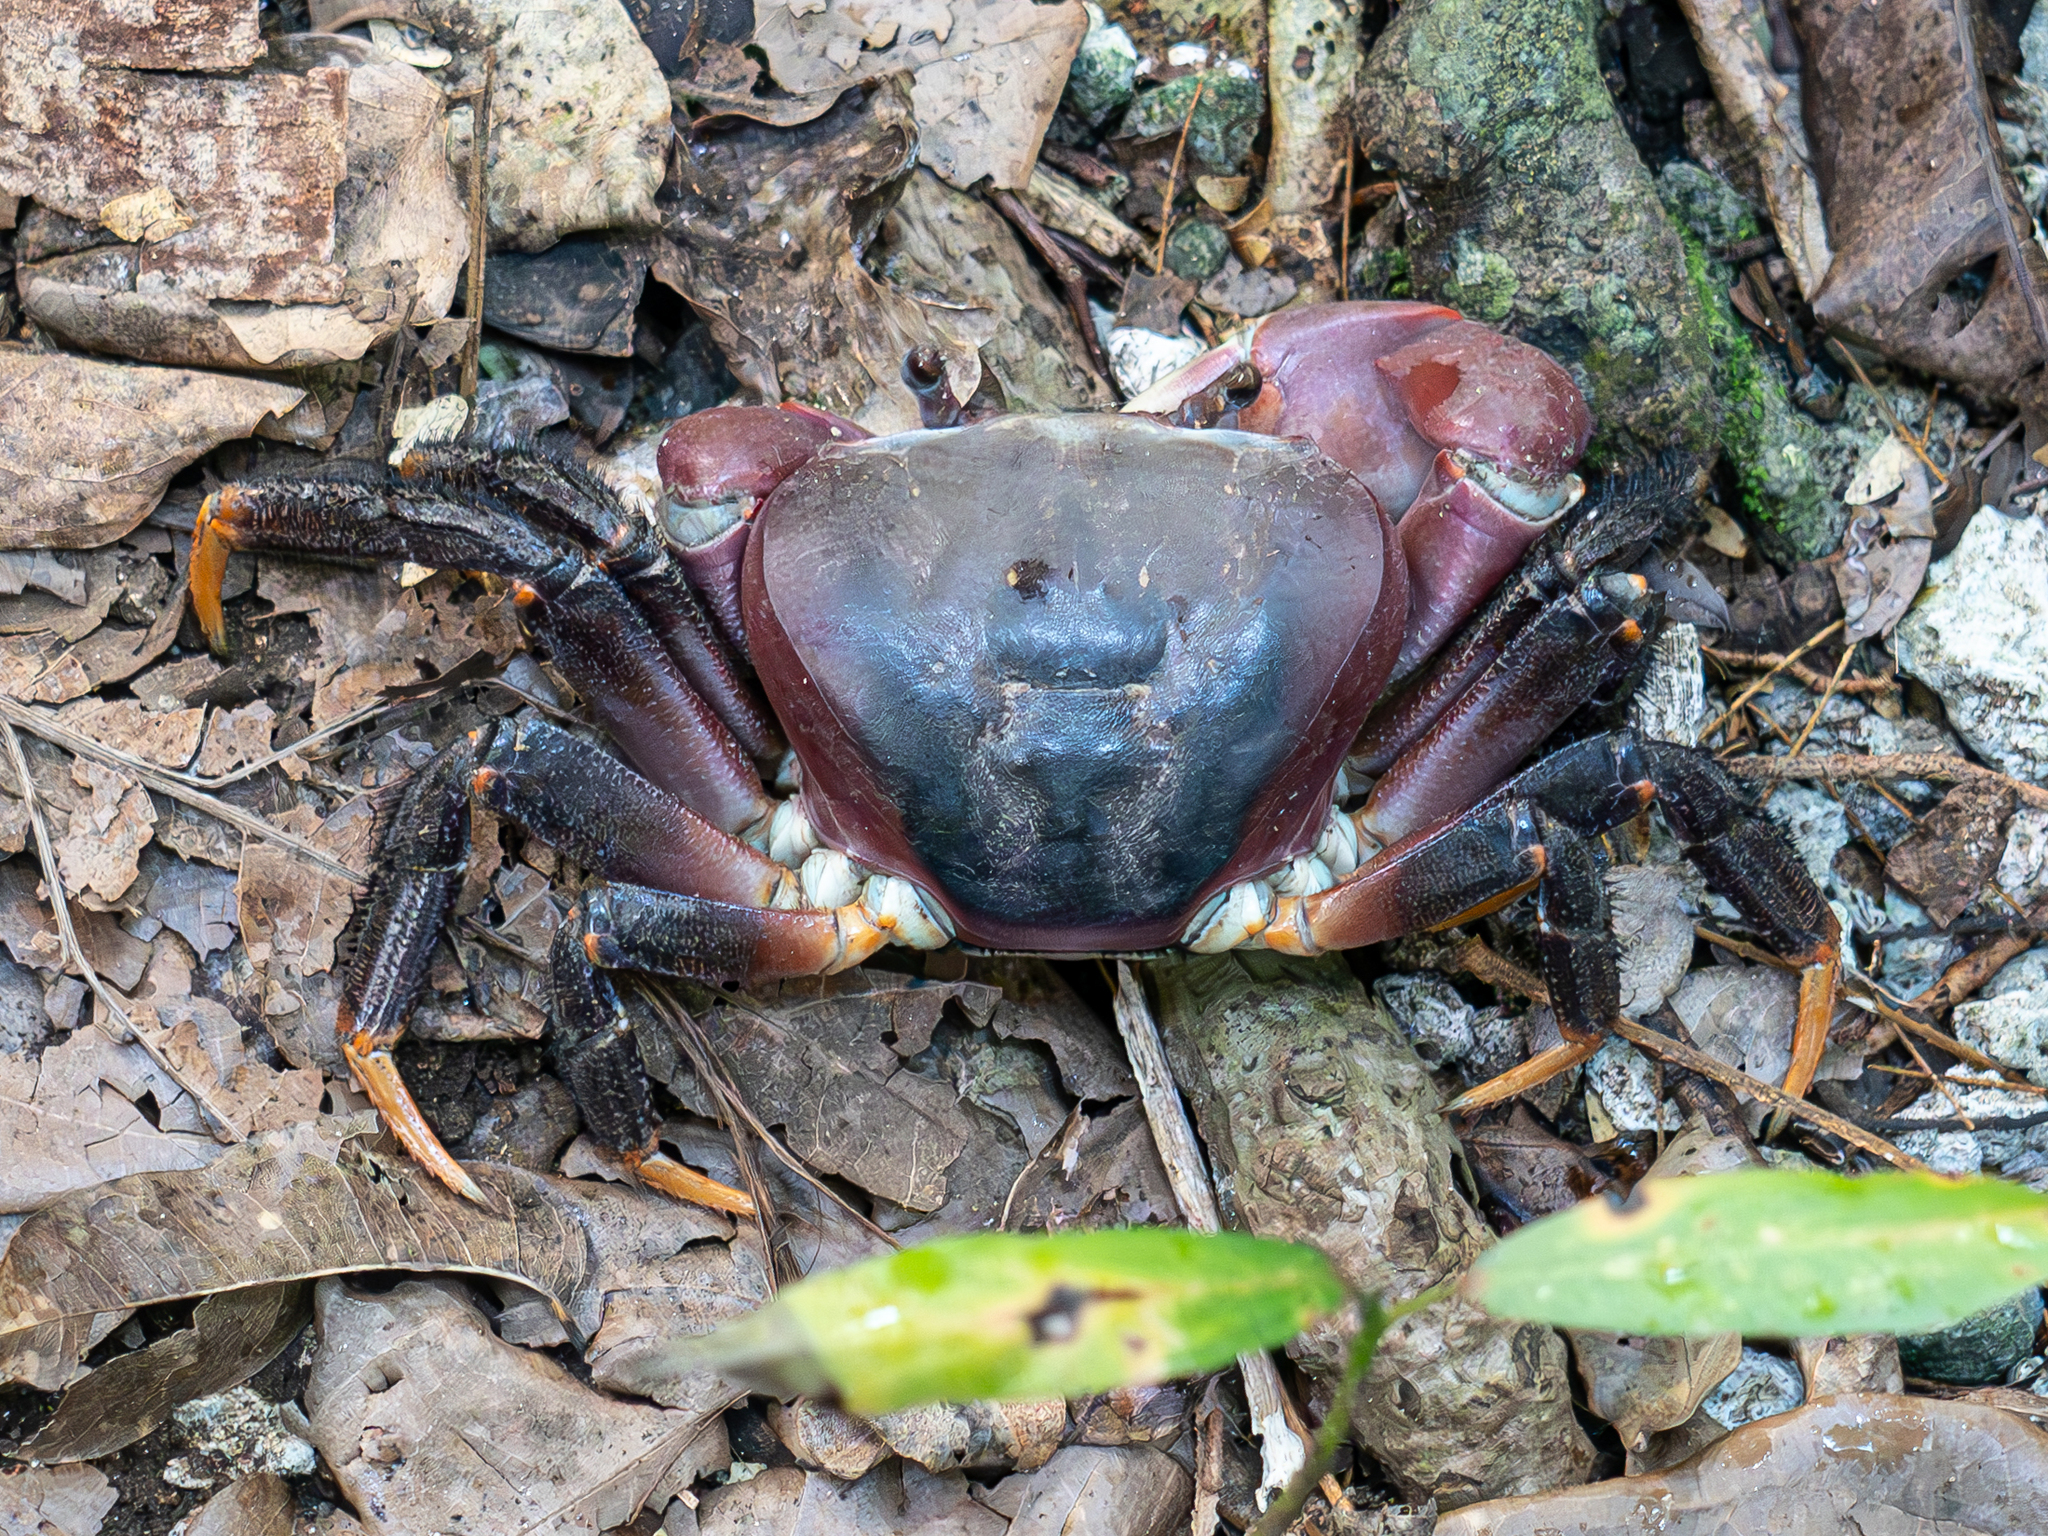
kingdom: Animalia
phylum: Arthropoda
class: Malacostraca
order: Decapoda
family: Gecarcinidae
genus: Cardisoma
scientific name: Cardisoma carnifex
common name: Brown land crab
